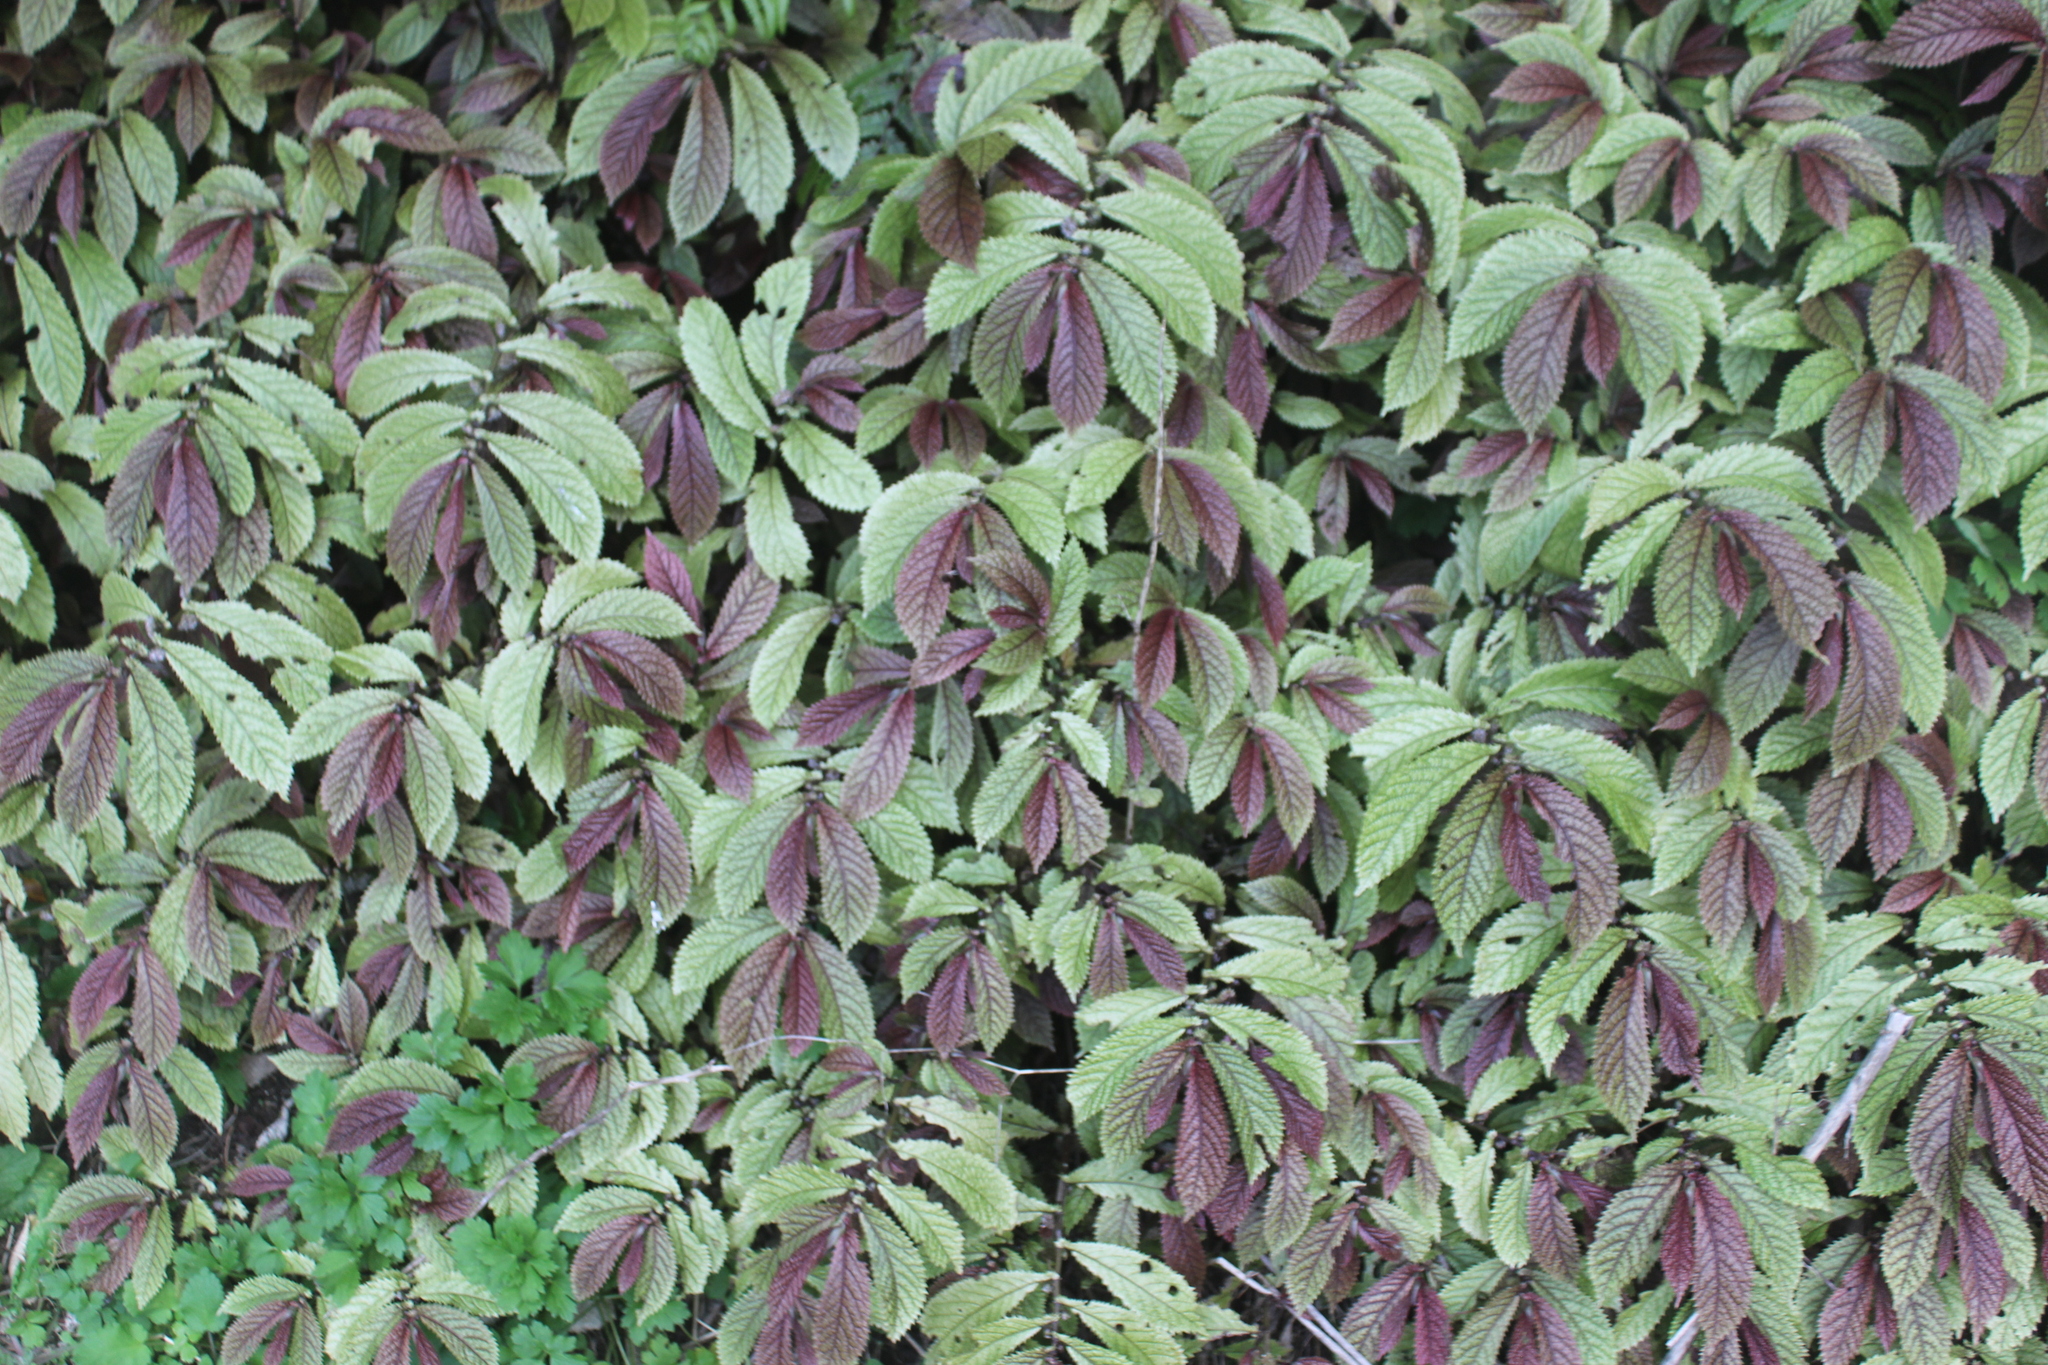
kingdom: Plantae
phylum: Tracheophyta
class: Magnoliopsida
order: Rosales
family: Urticaceae
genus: Elatostema
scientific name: Elatostema rugosum
